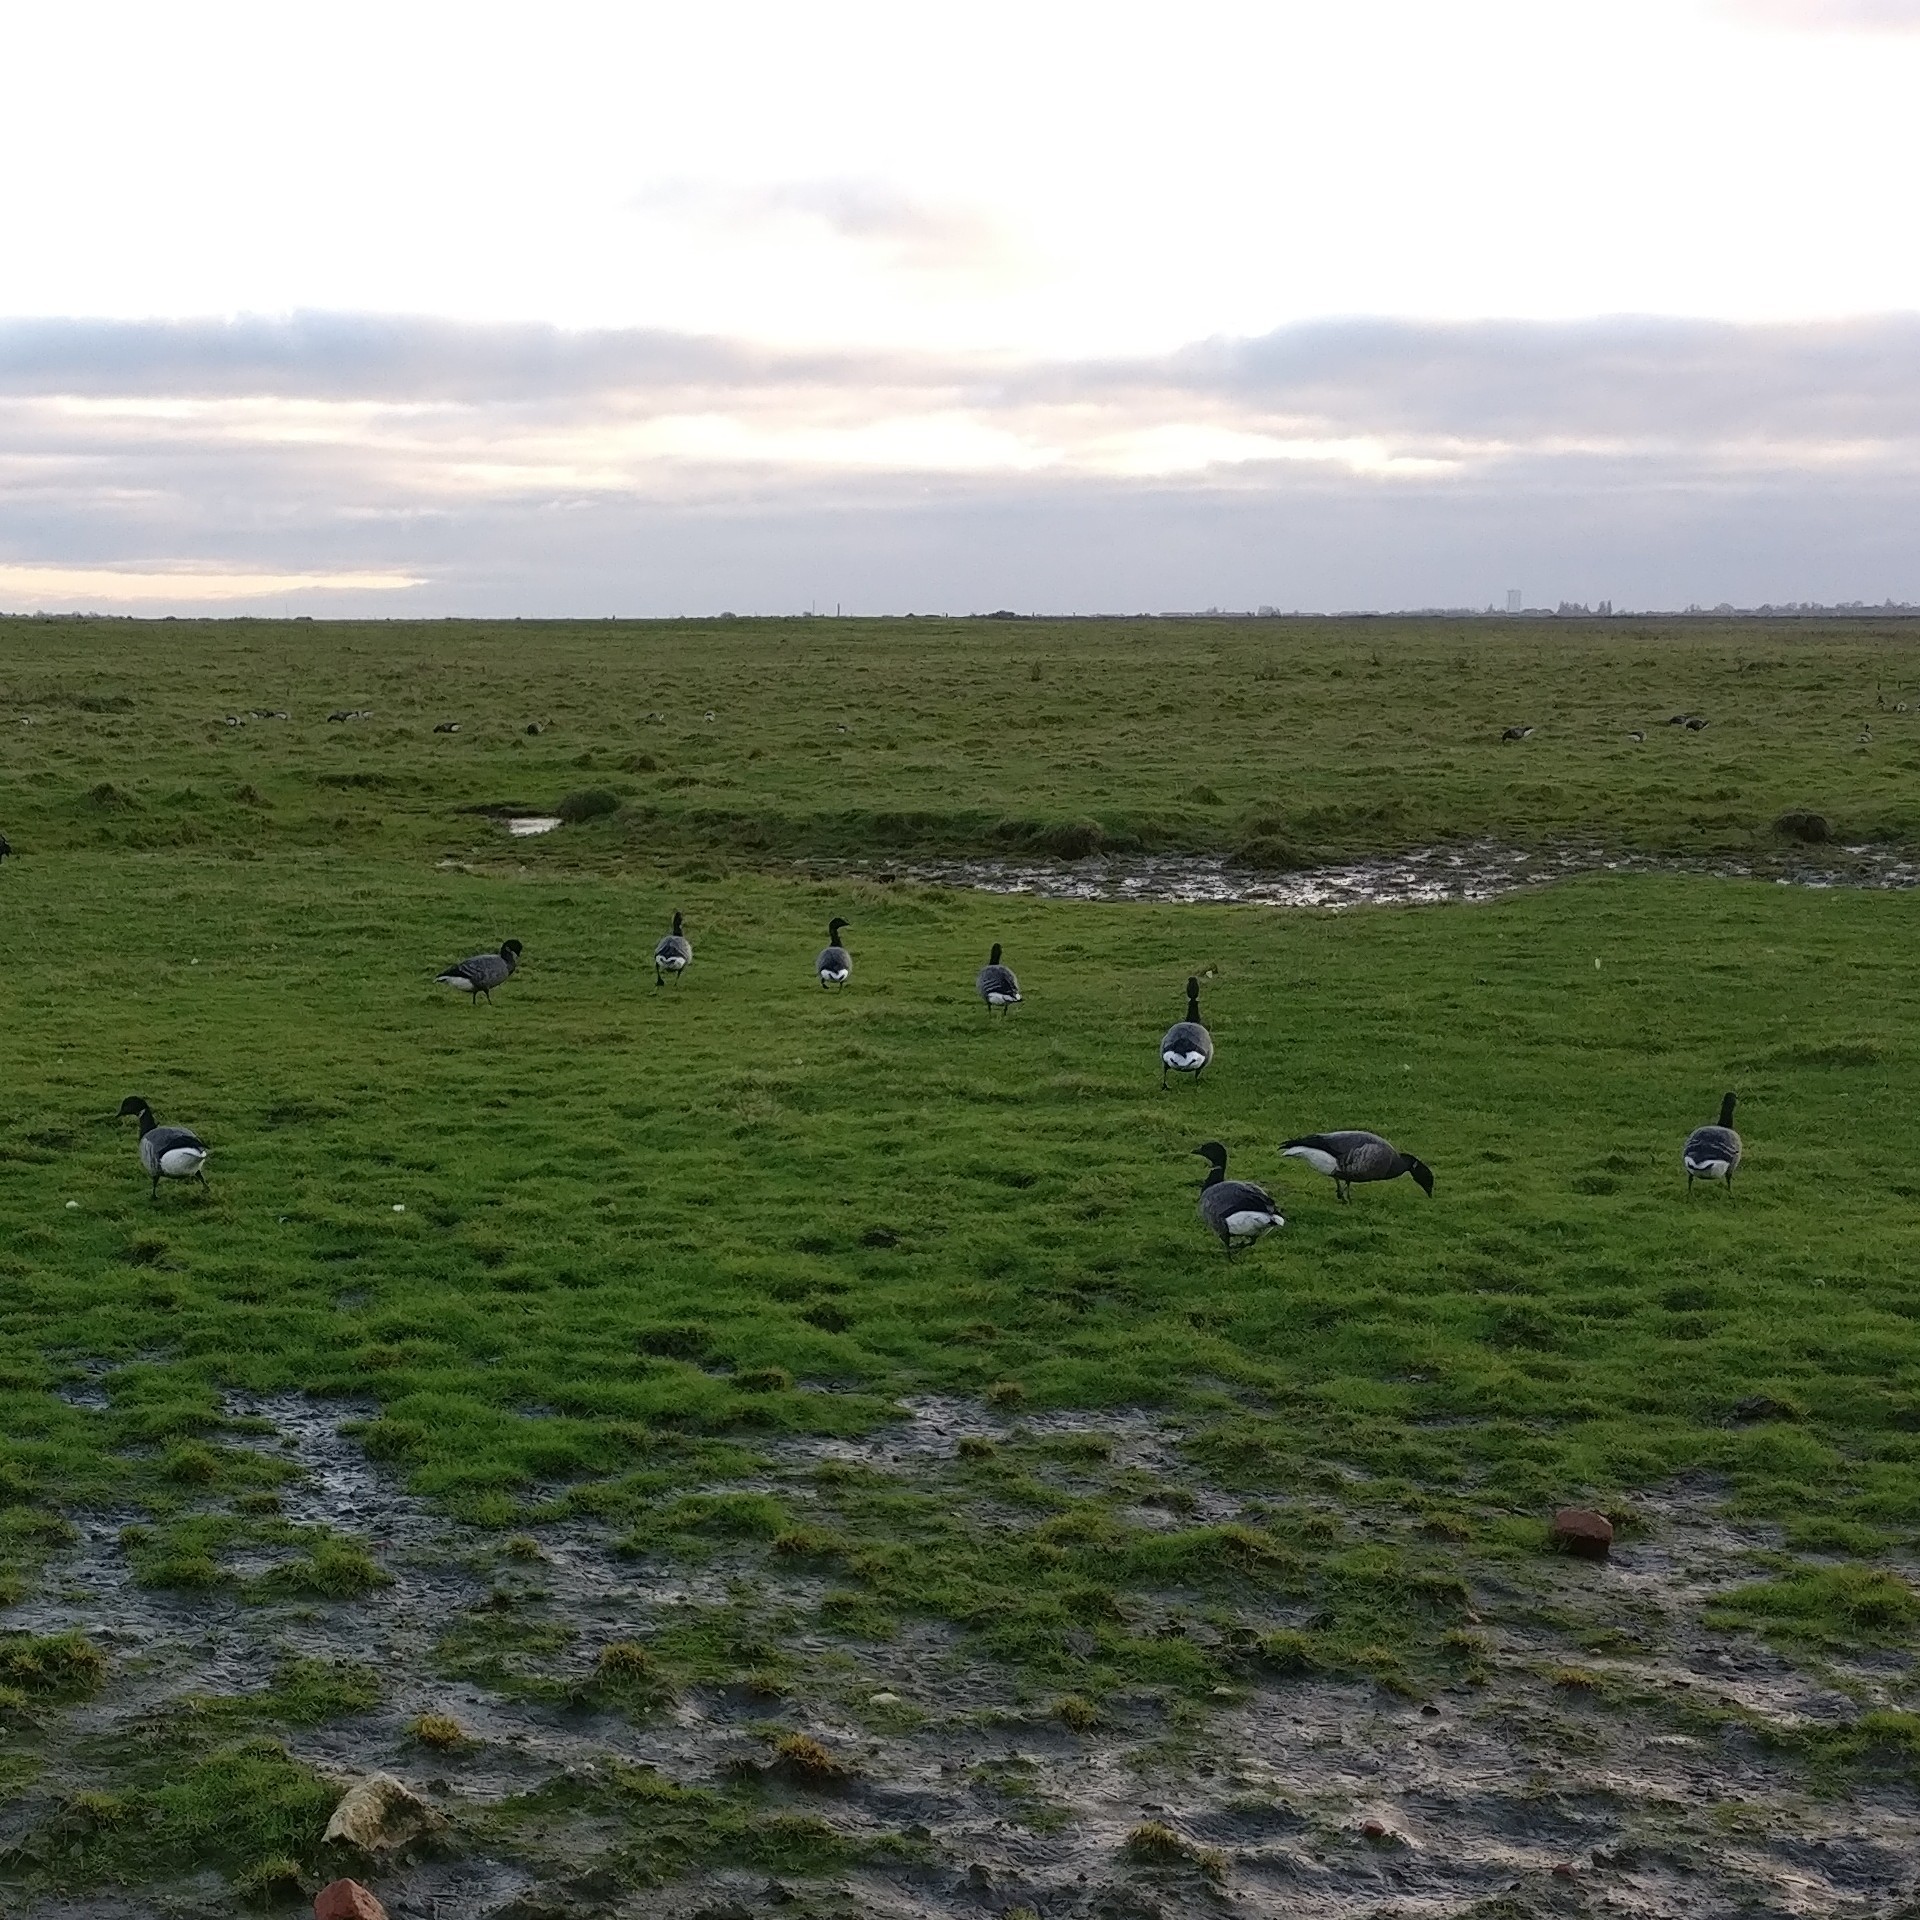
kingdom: Animalia
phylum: Chordata
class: Aves
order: Anseriformes
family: Anatidae
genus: Branta
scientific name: Branta bernicla
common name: Brant goose
